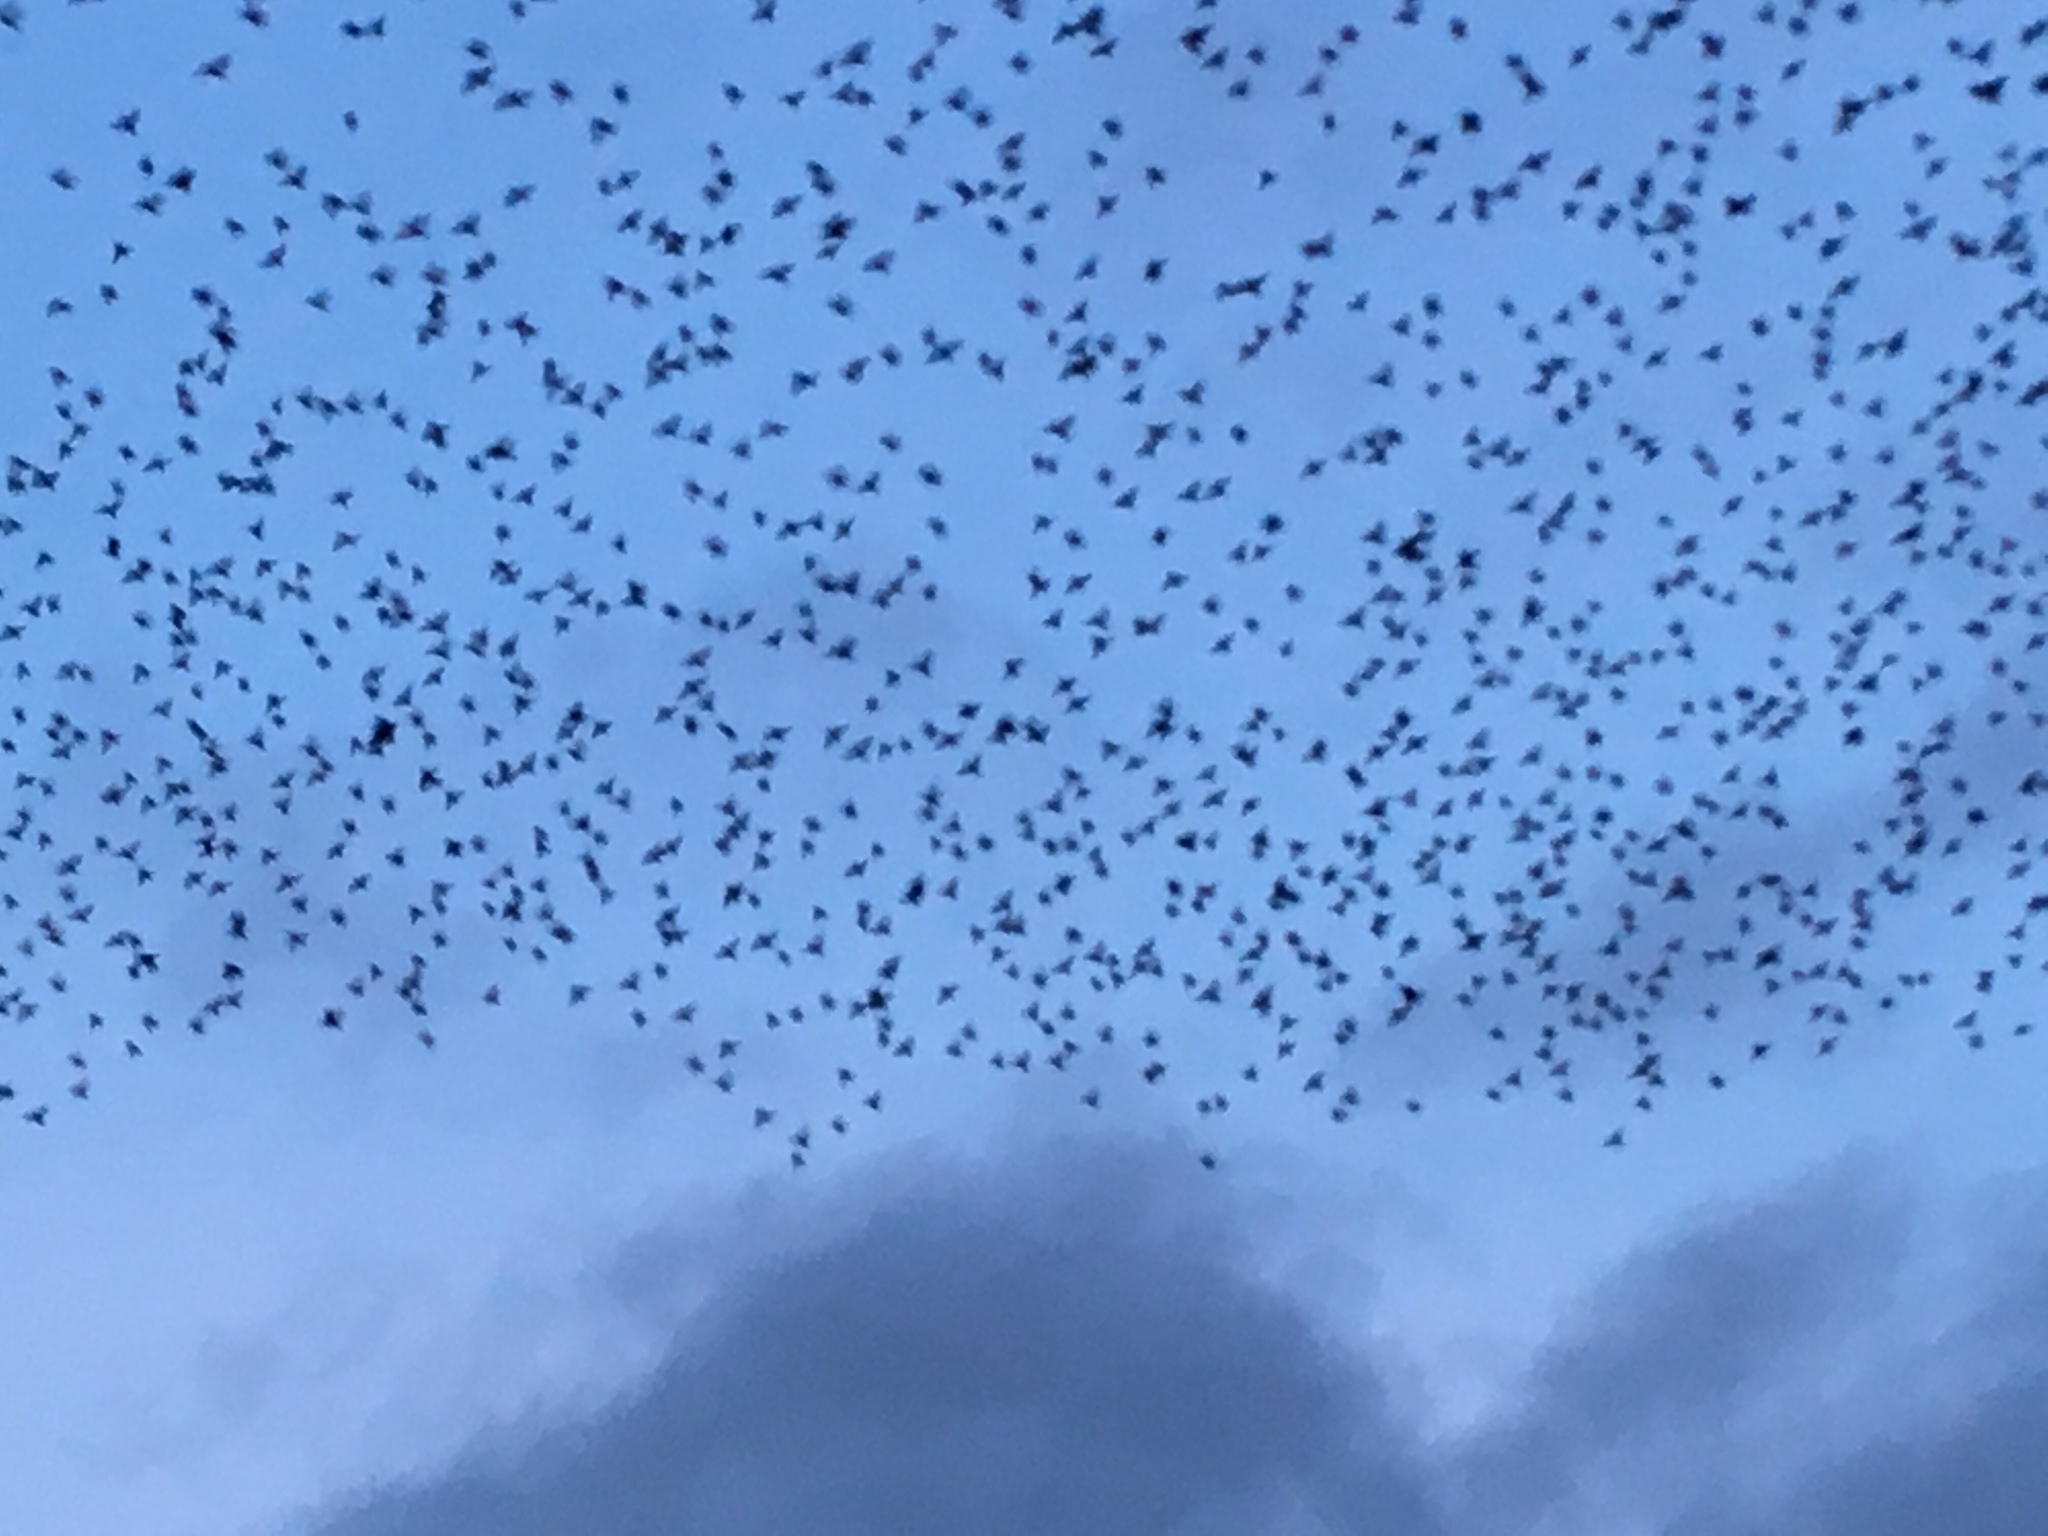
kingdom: Animalia
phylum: Chordata
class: Aves
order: Passeriformes
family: Sturnidae
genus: Sturnus
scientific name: Sturnus vulgaris
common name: Common starling
